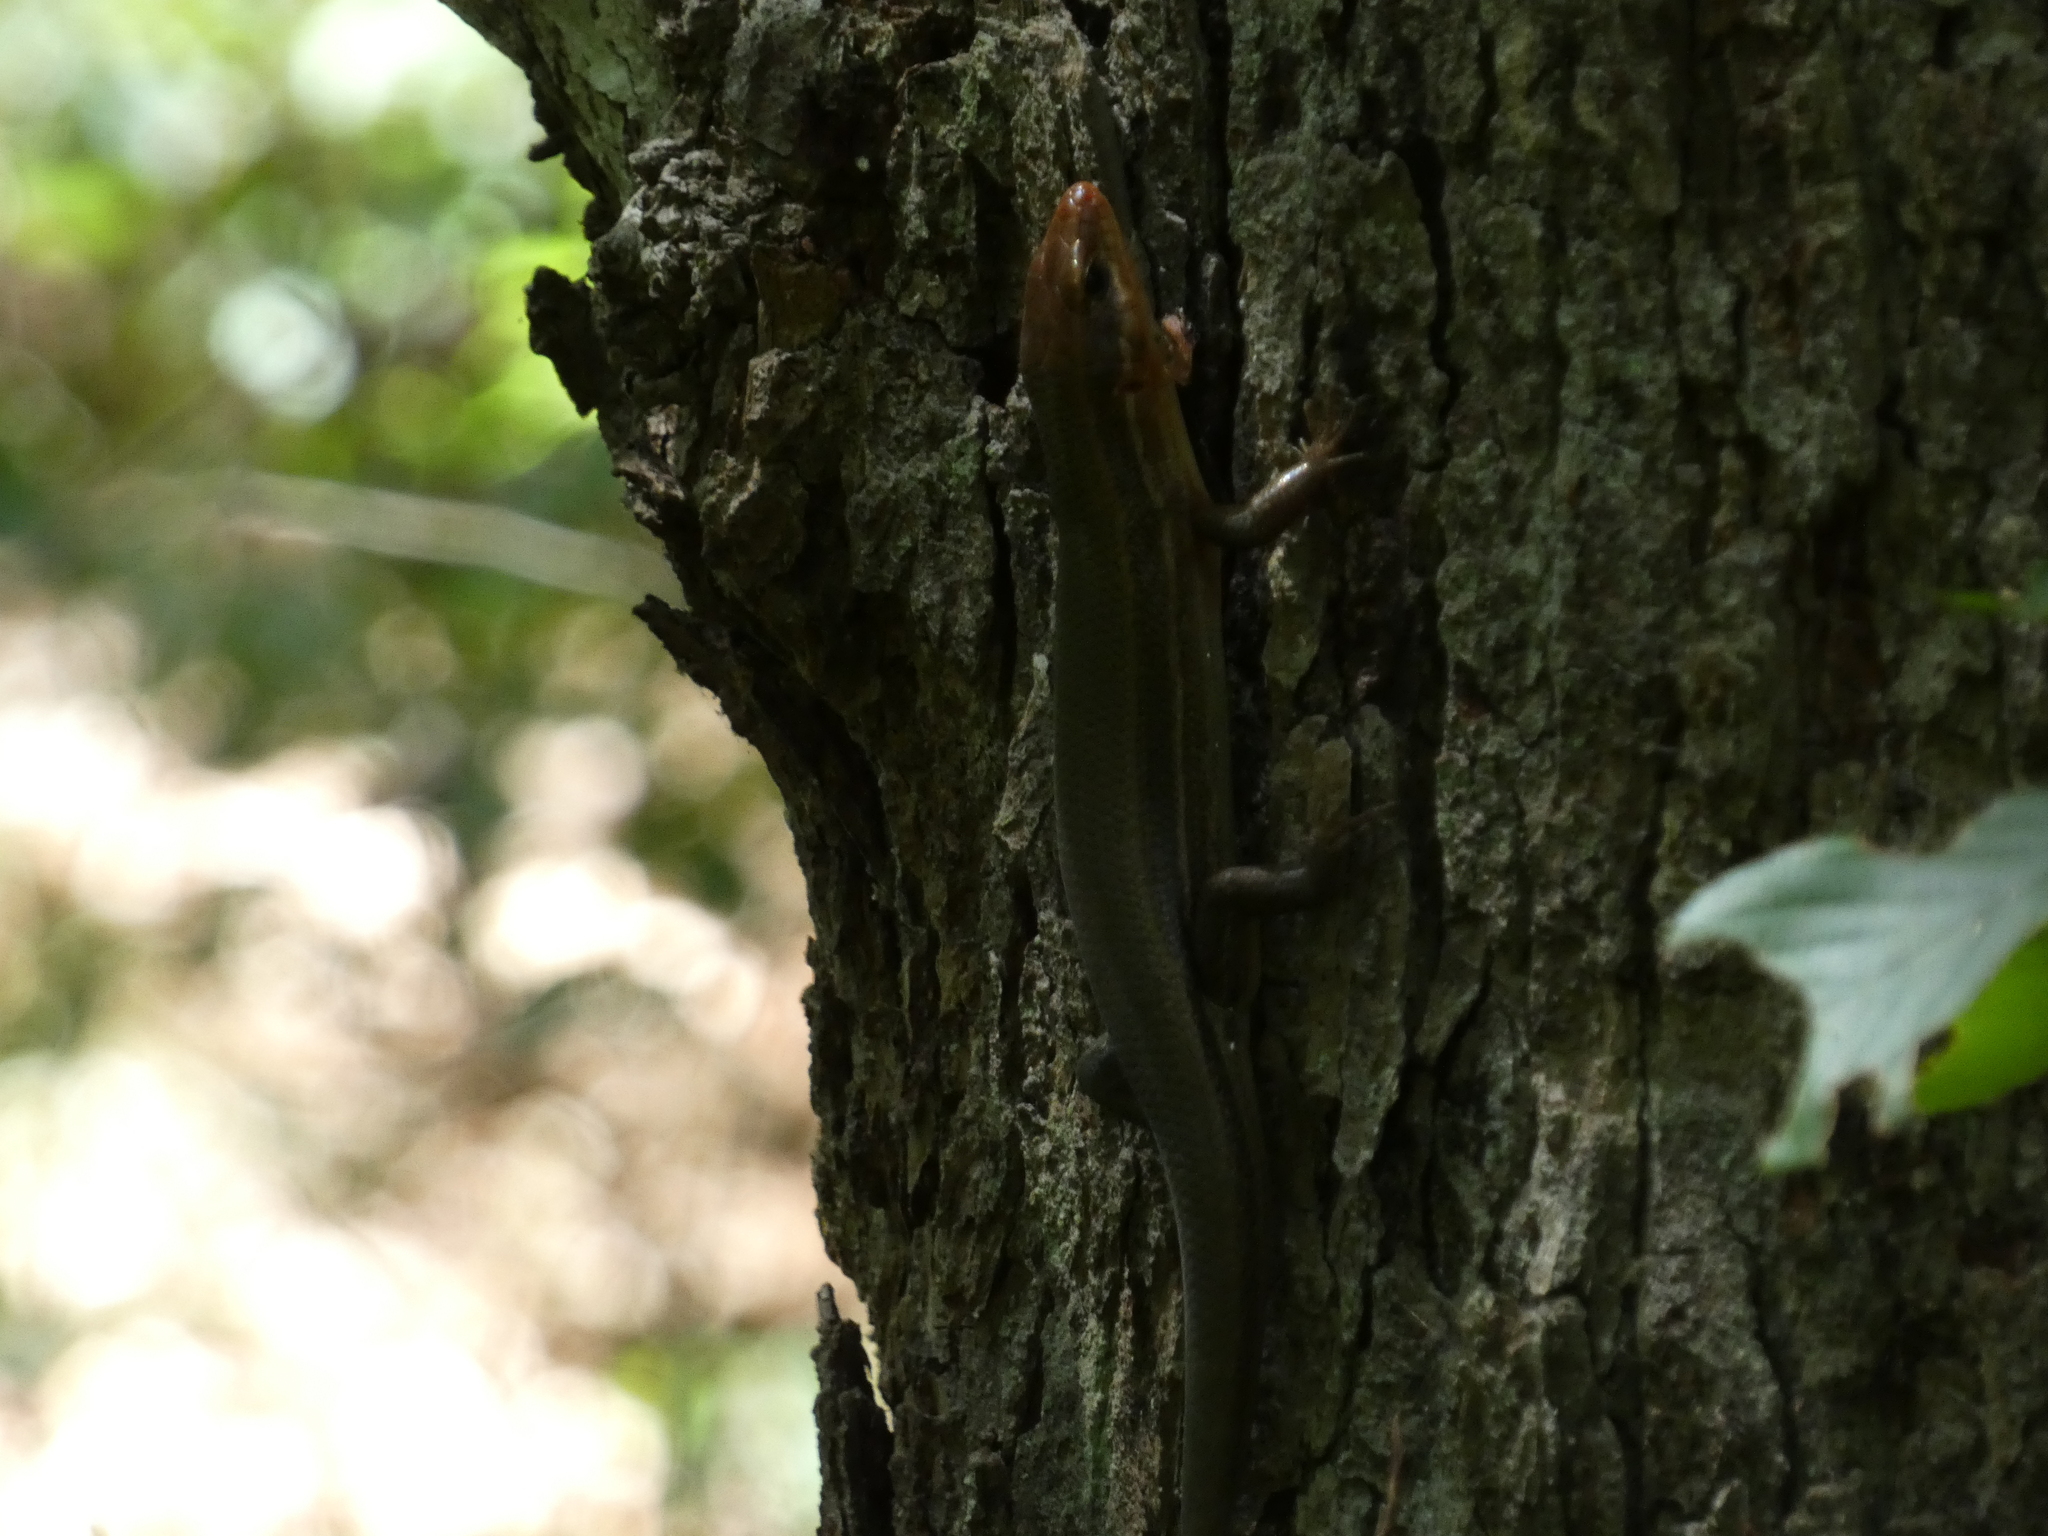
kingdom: Animalia
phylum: Chordata
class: Squamata
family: Scincidae
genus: Plestiodon
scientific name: Plestiodon laticeps
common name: Broadhead skink
